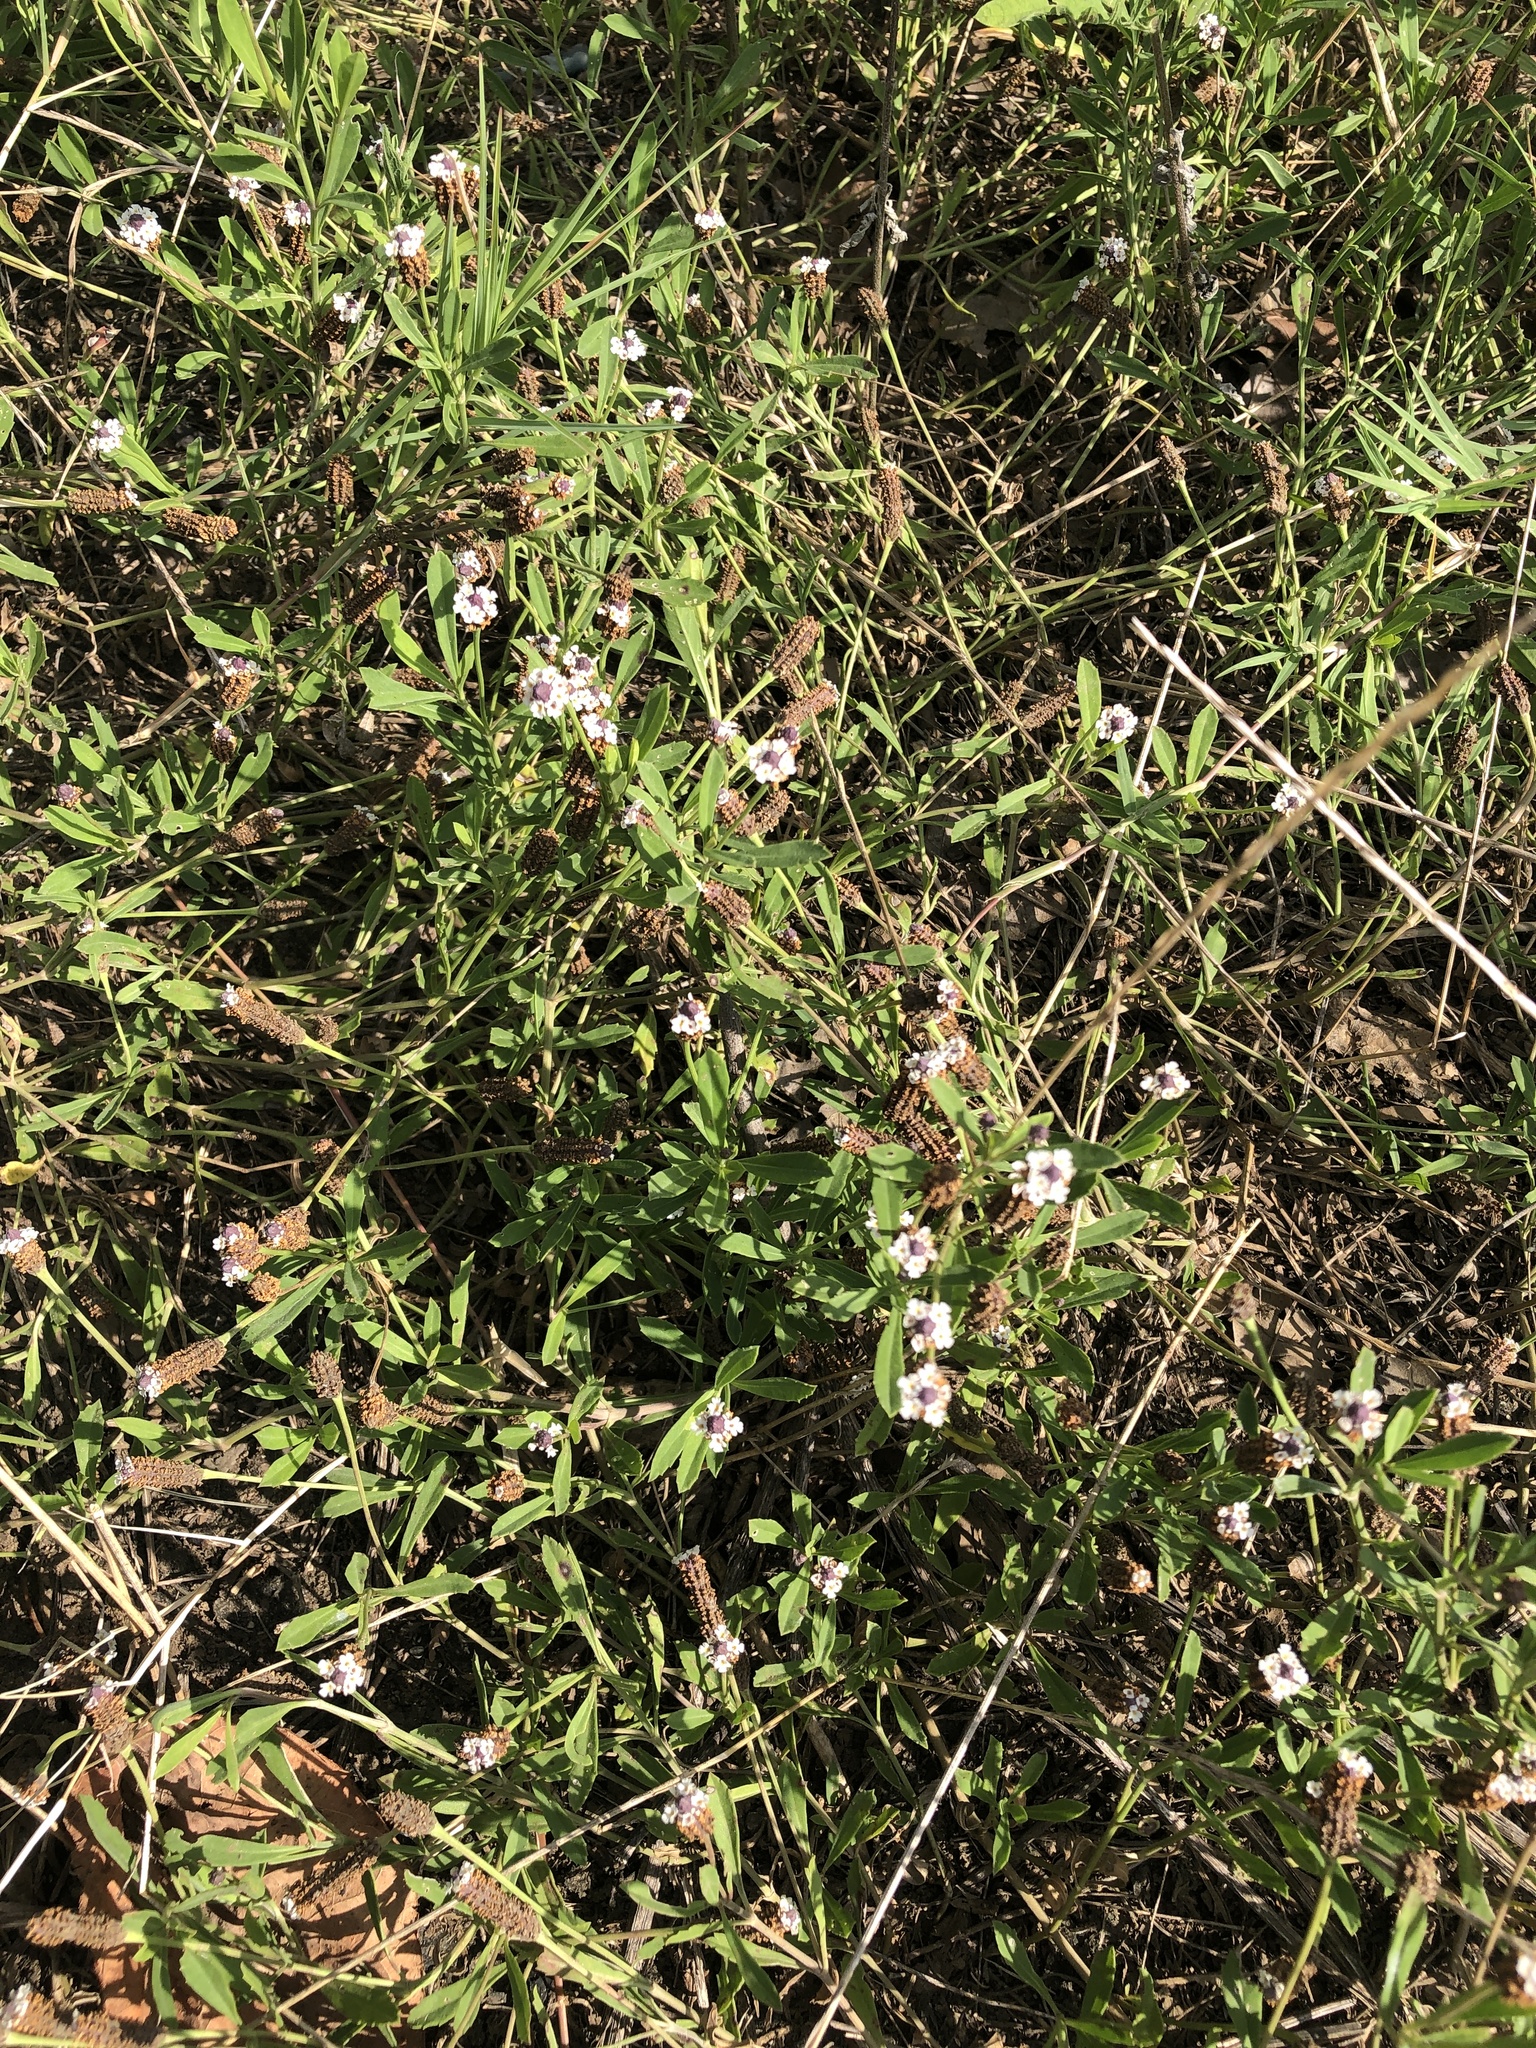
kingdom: Plantae
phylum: Tracheophyta
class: Magnoliopsida
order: Lamiales
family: Verbenaceae
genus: Phyla
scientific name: Phyla nodiflora
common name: Frogfruit
